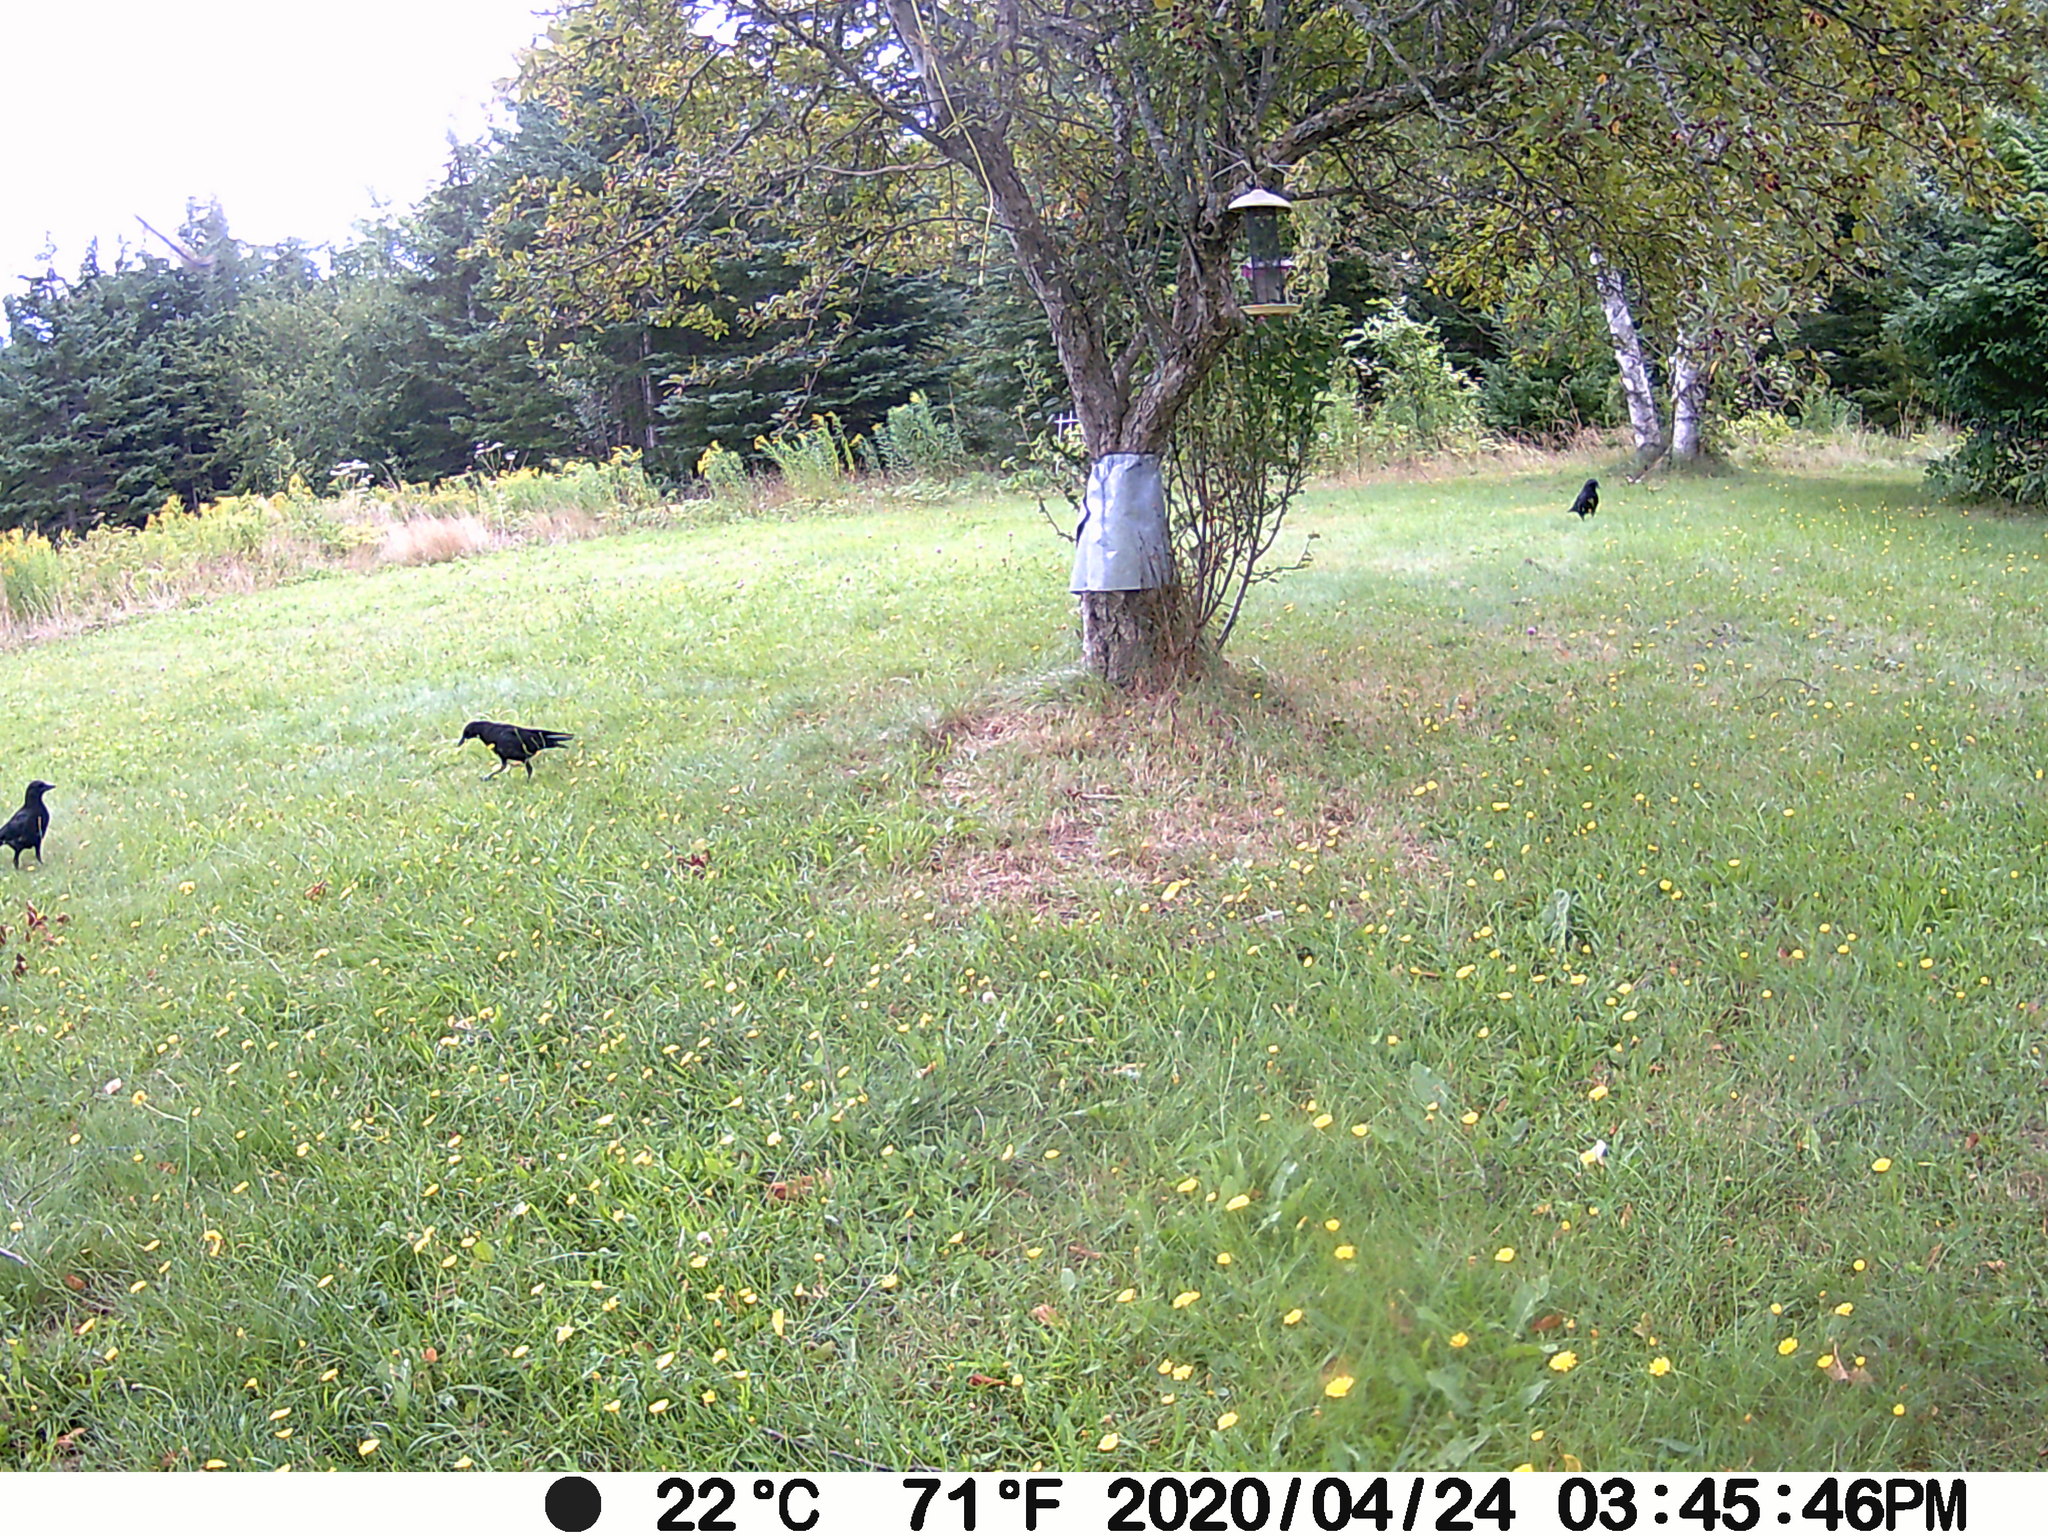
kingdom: Animalia
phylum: Chordata
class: Aves
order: Passeriformes
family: Corvidae
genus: Corvus
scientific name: Corvus brachyrhynchos
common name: American crow
